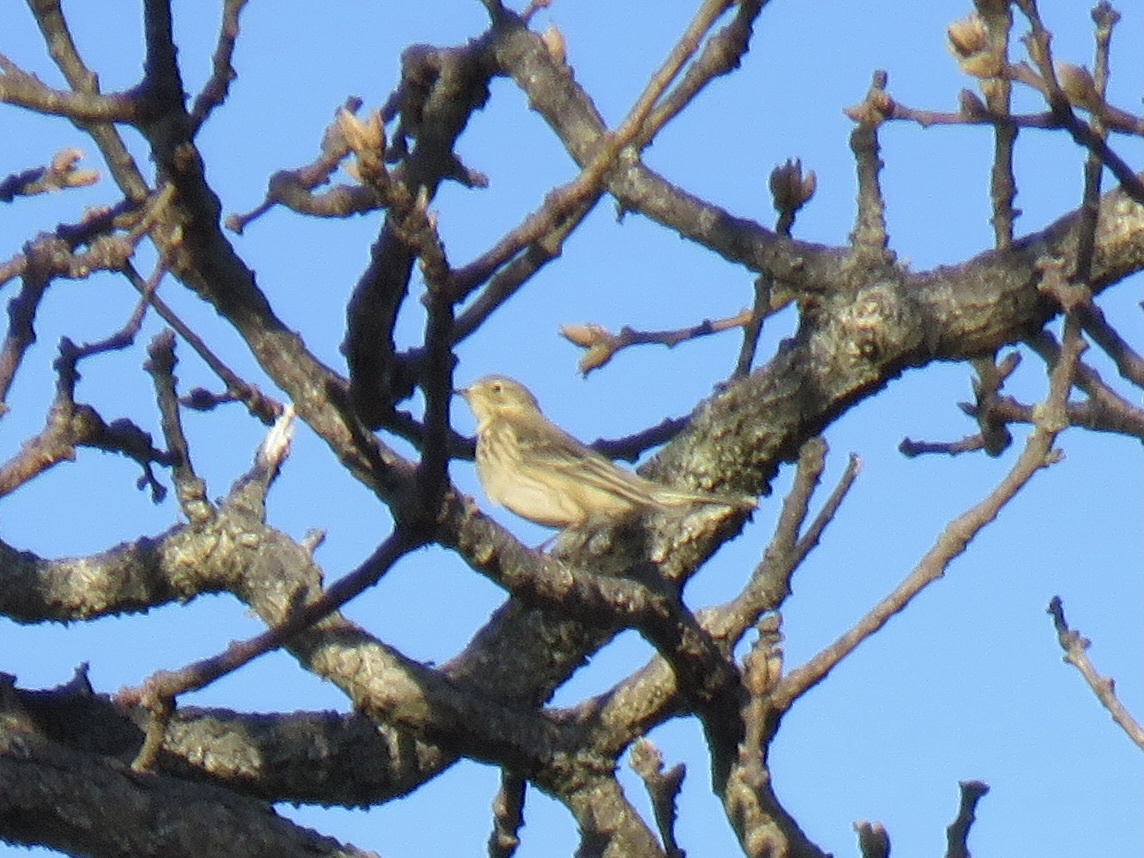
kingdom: Animalia
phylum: Chordata
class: Aves
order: Passeriformes
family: Motacillidae
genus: Anthus
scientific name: Anthus rubescens
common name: Buff-bellied pipit
